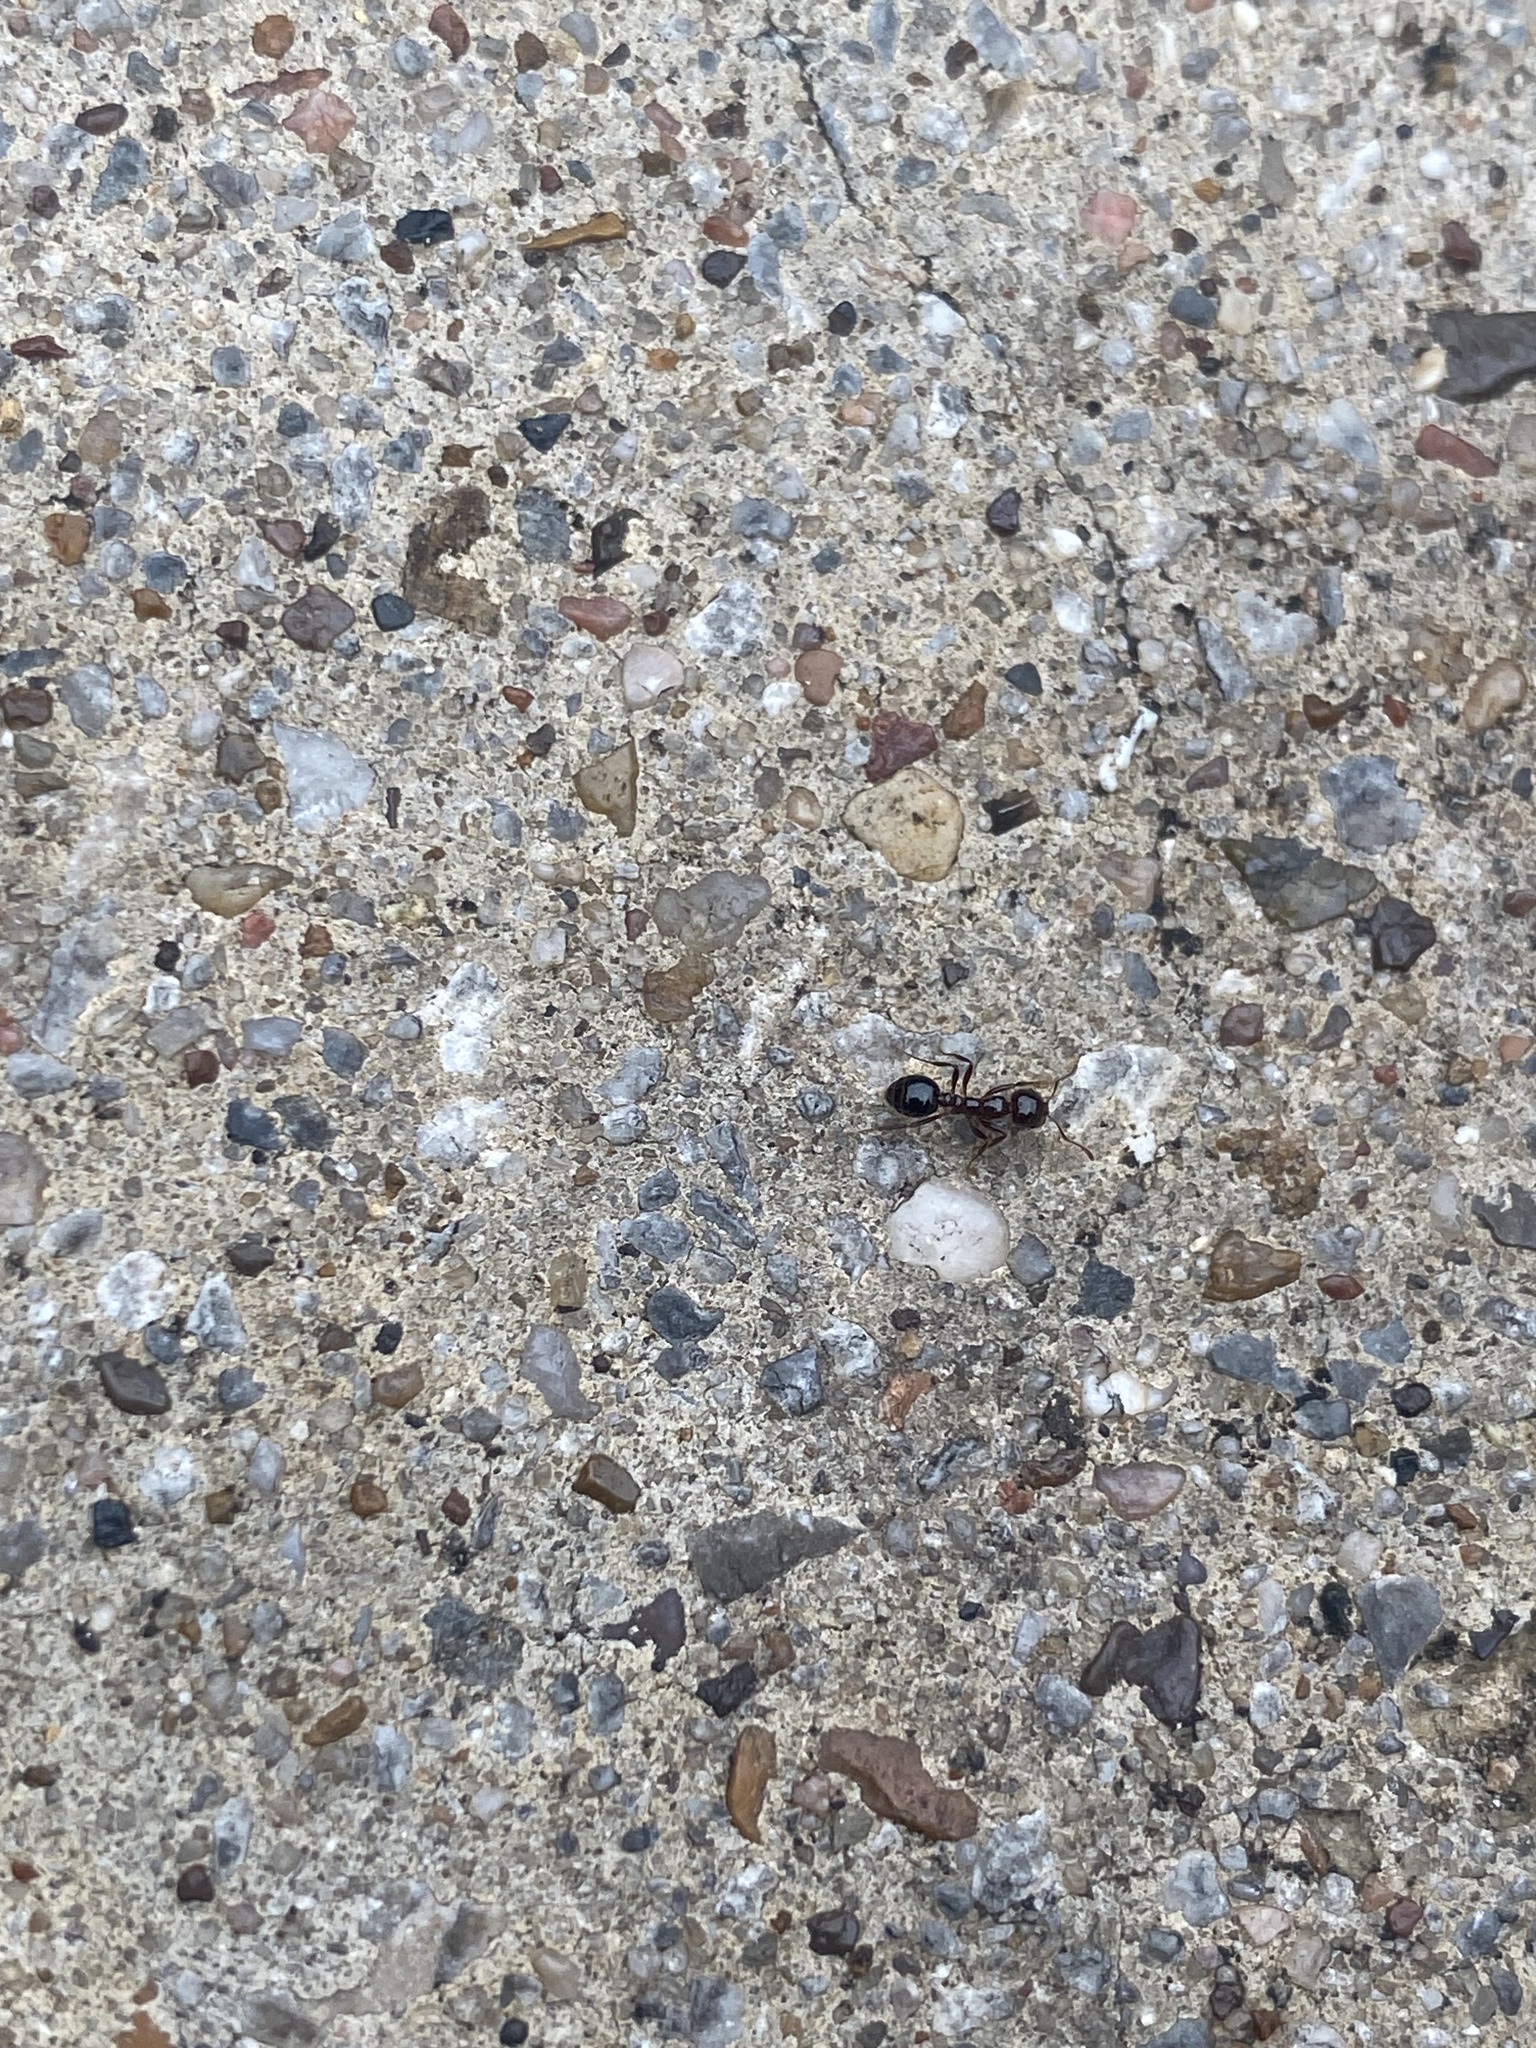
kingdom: Animalia
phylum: Arthropoda
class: Insecta
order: Hymenoptera
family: Formicidae
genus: Solenopsis
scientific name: Solenopsis invicta
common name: Red imported fire ant
